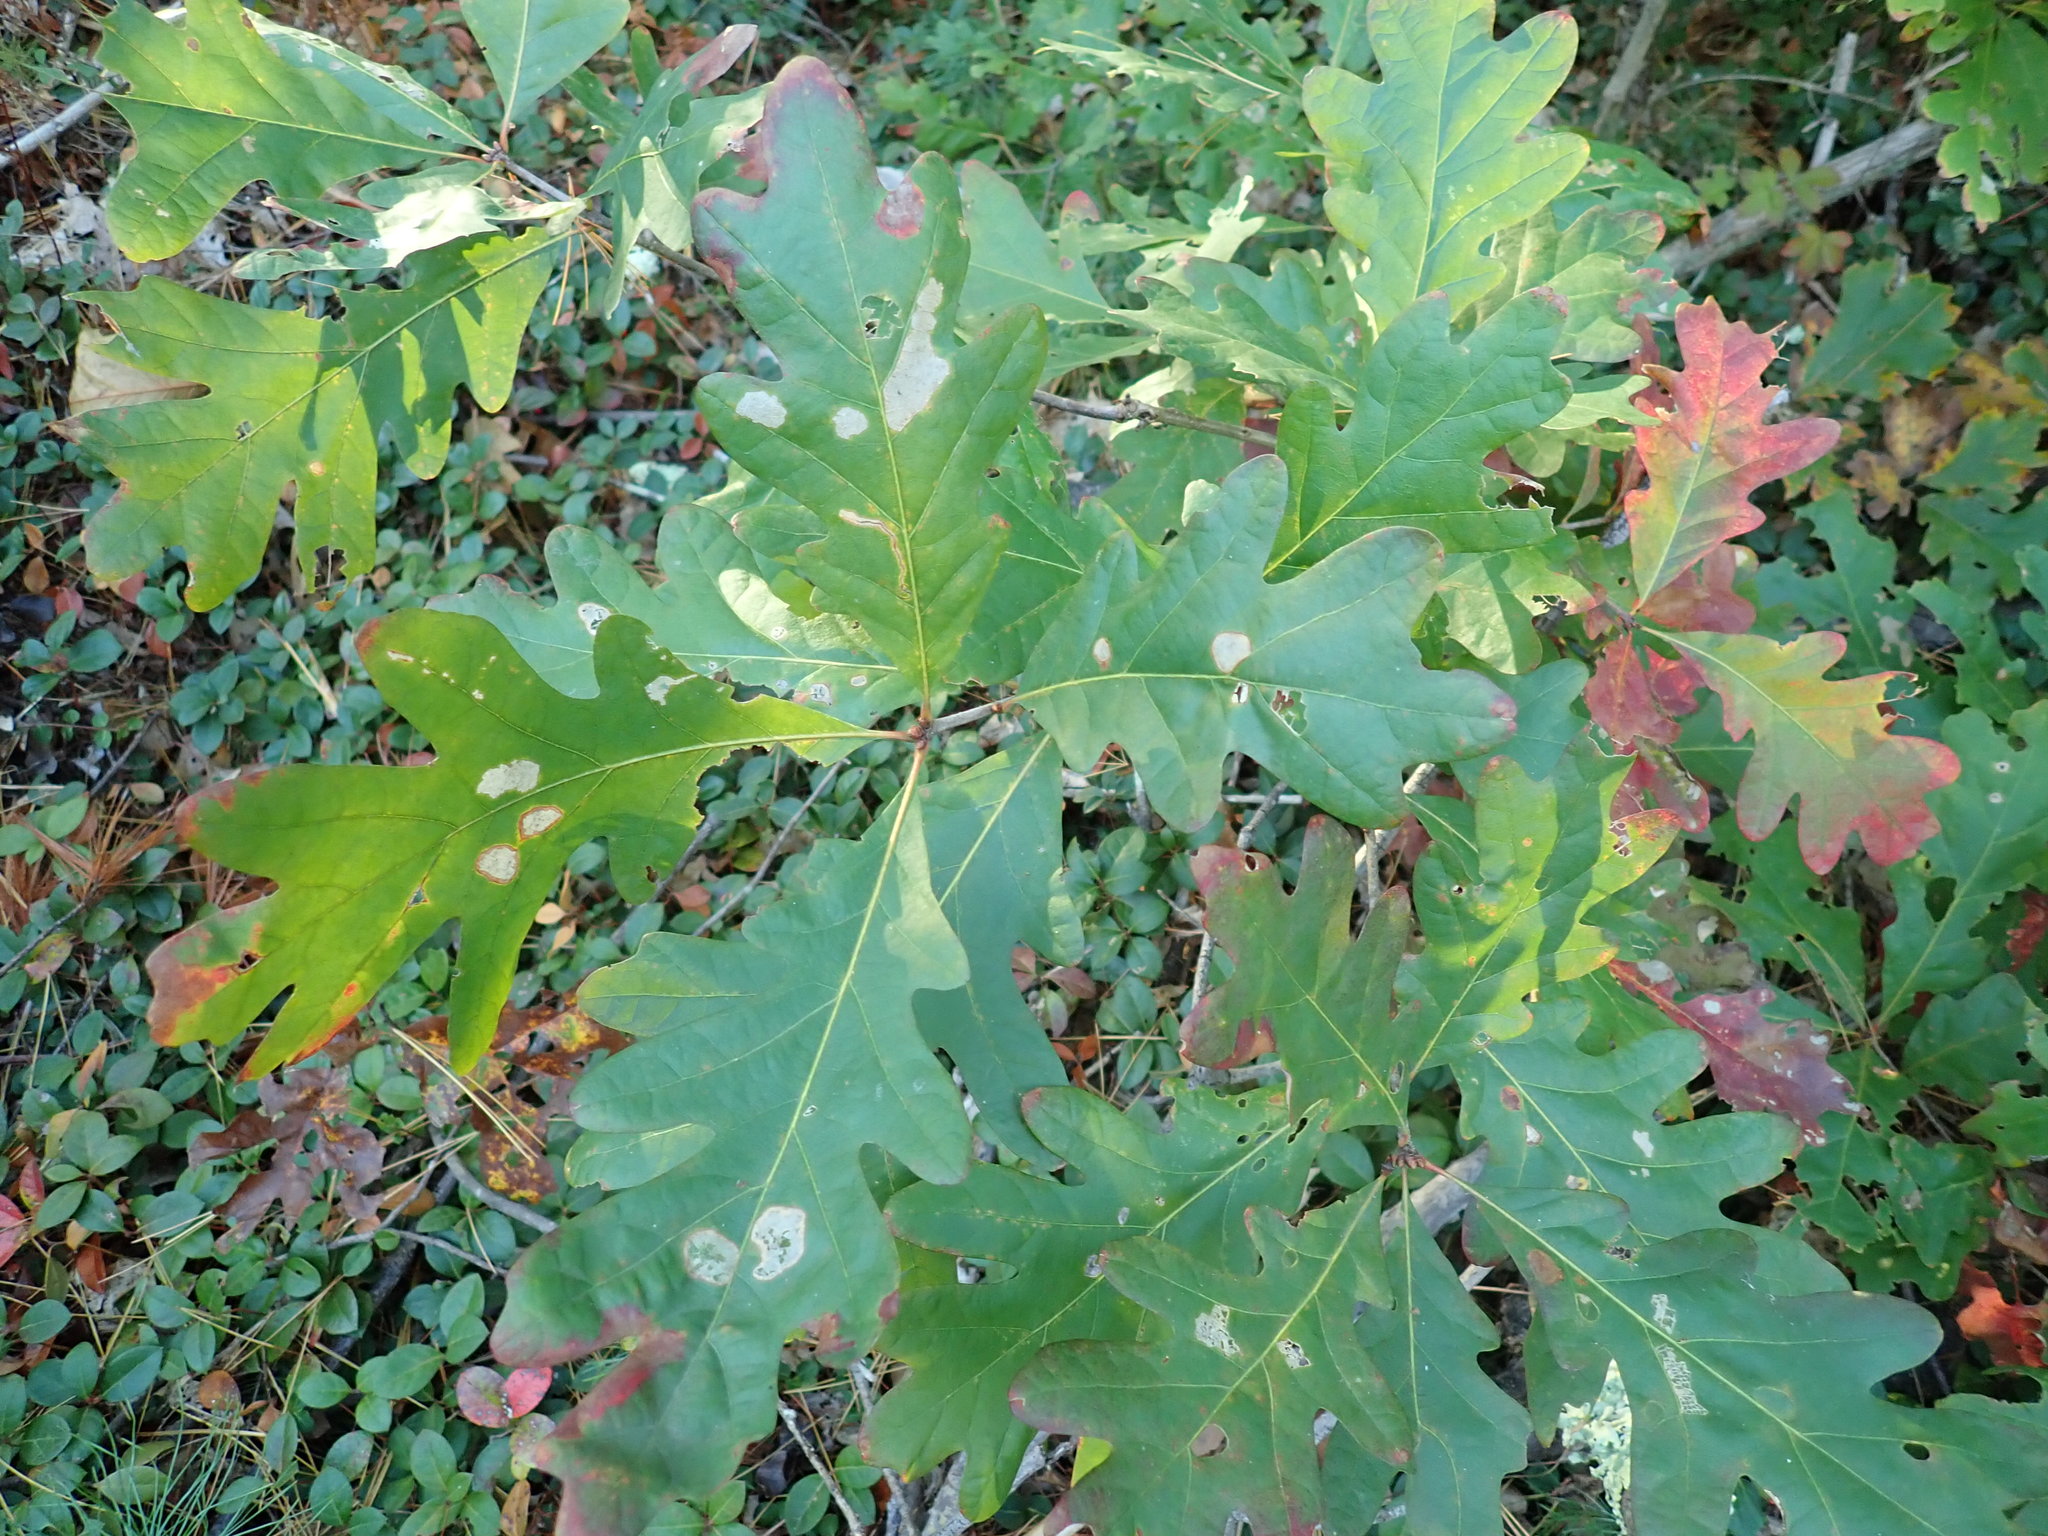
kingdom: Plantae
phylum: Tracheophyta
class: Magnoliopsida
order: Fagales
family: Fagaceae
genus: Quercus
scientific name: Quercus alba
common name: White oak
